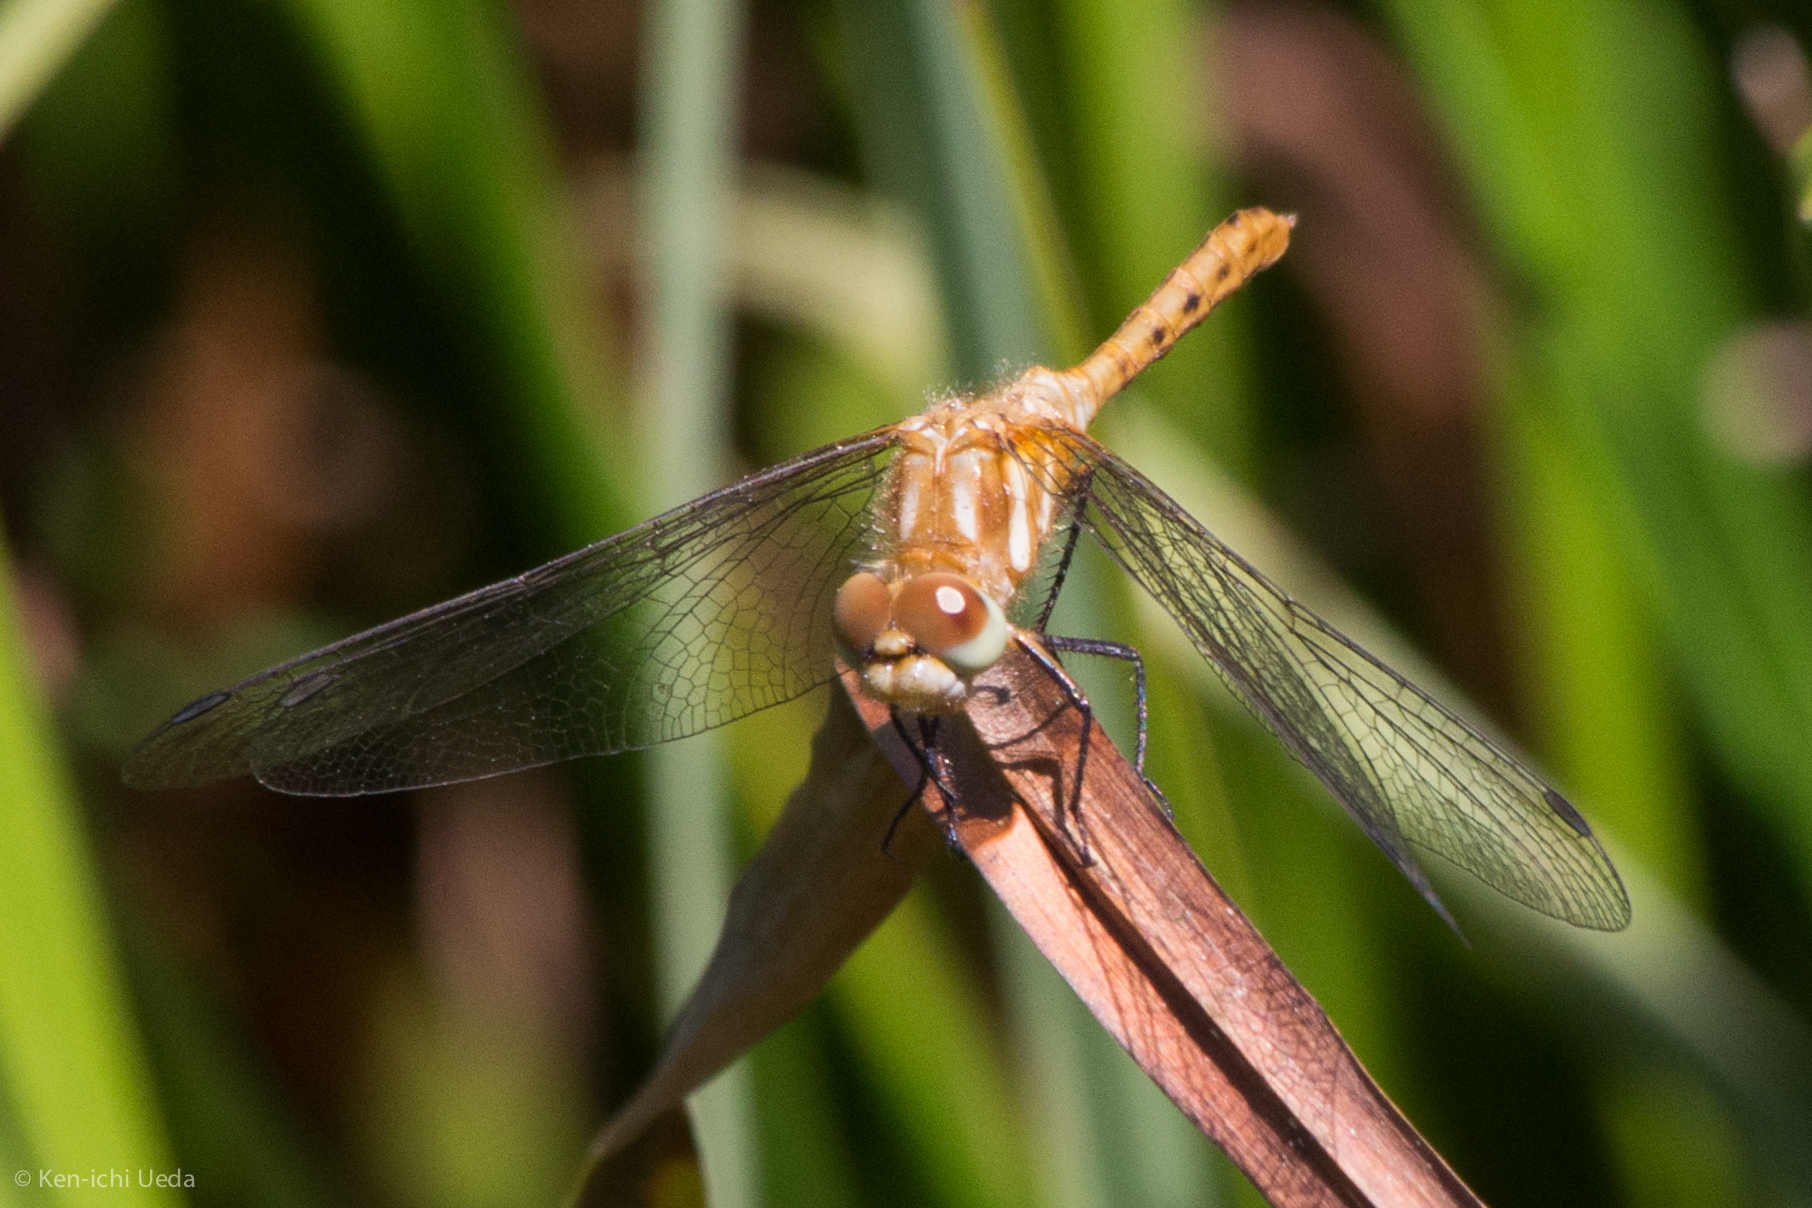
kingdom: Animalia
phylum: Arthropoda
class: Insecta
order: Odonata
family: Libellulidae
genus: Sympetrum
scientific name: Sympetrum pallipes
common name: Striped meadowhawk
